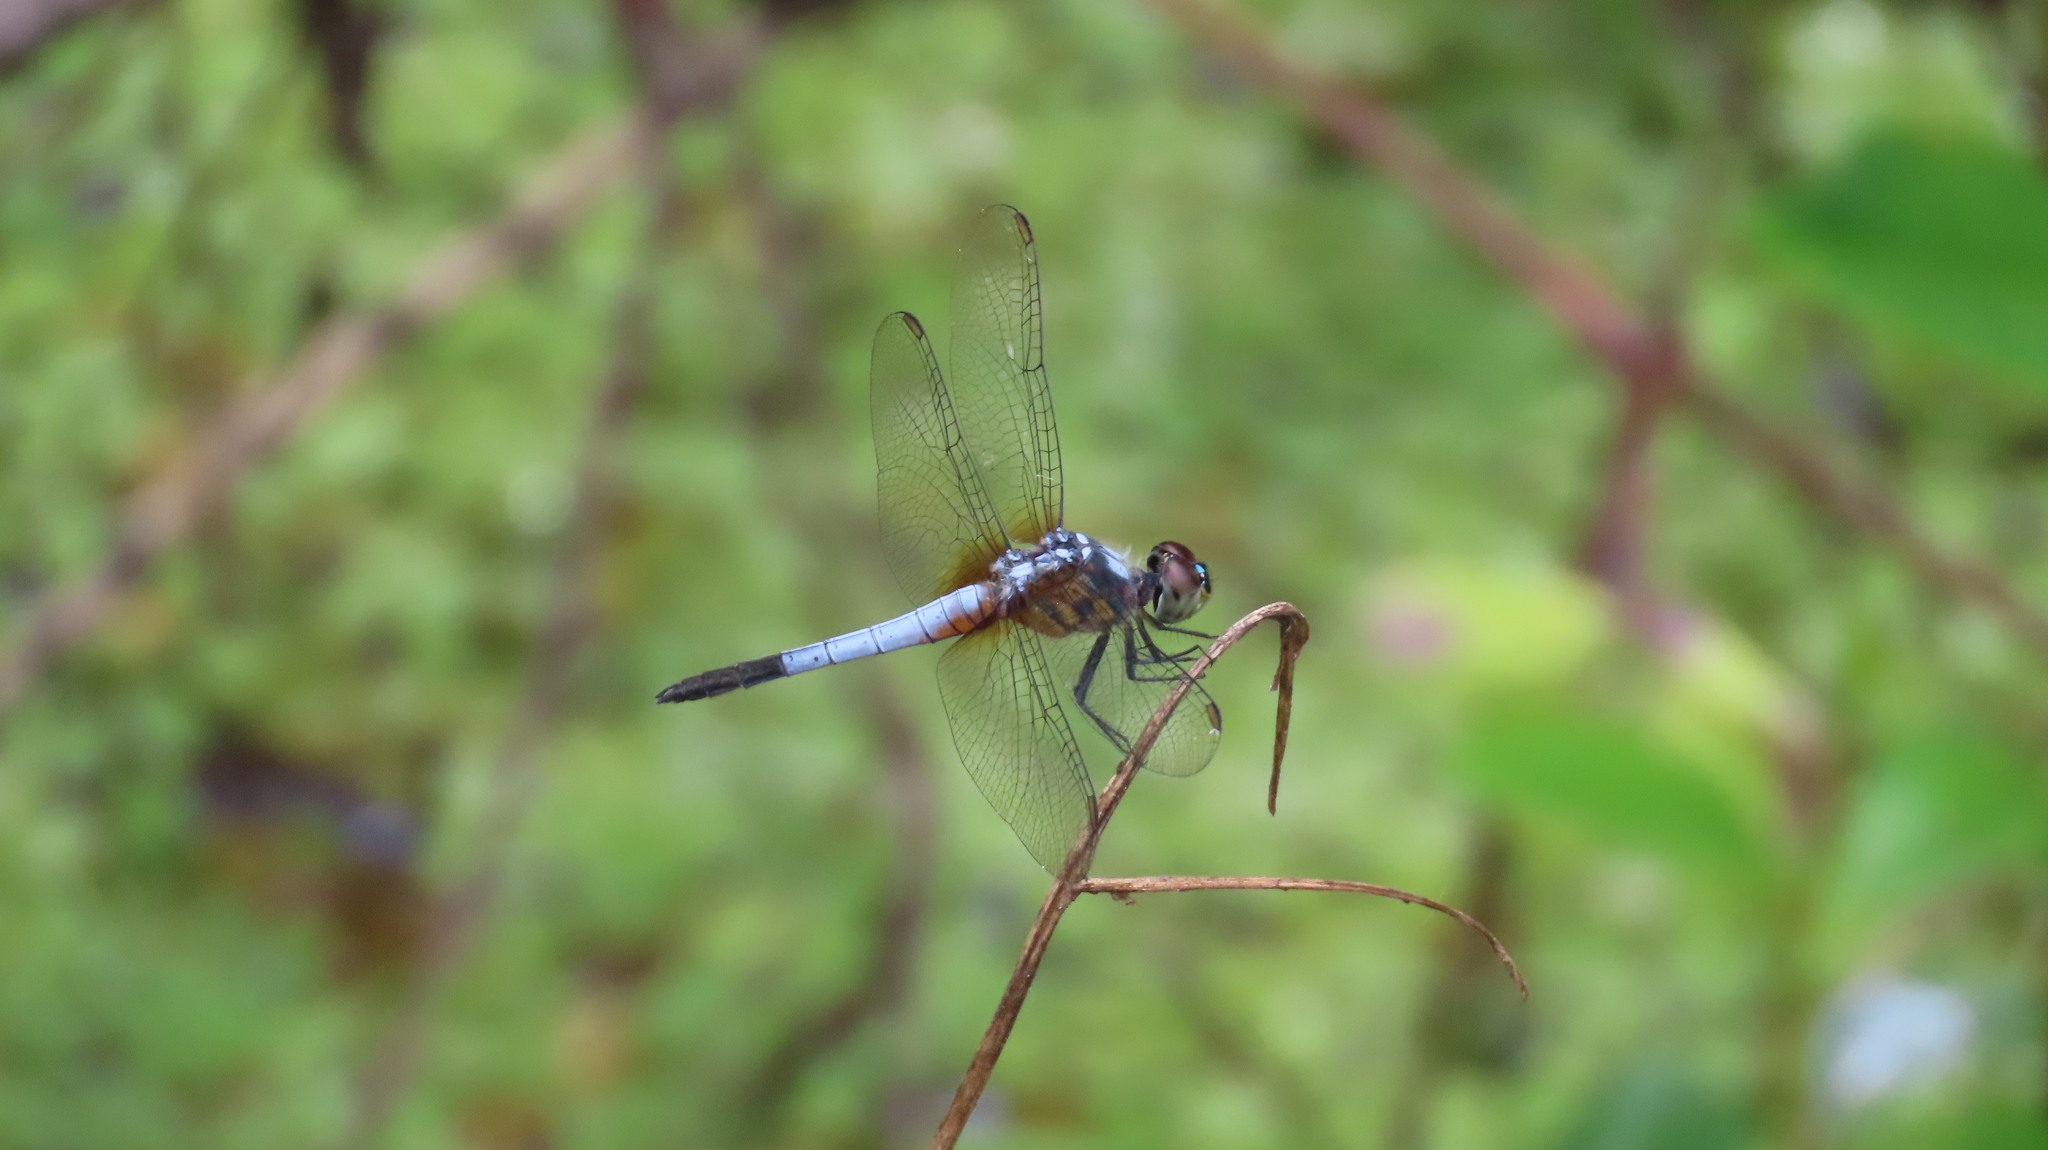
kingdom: Animalia
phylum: Arthropoda
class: Insecta
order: Odonata
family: Libellulidae
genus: Brachydiplax
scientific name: Brachydiplax chalybea
